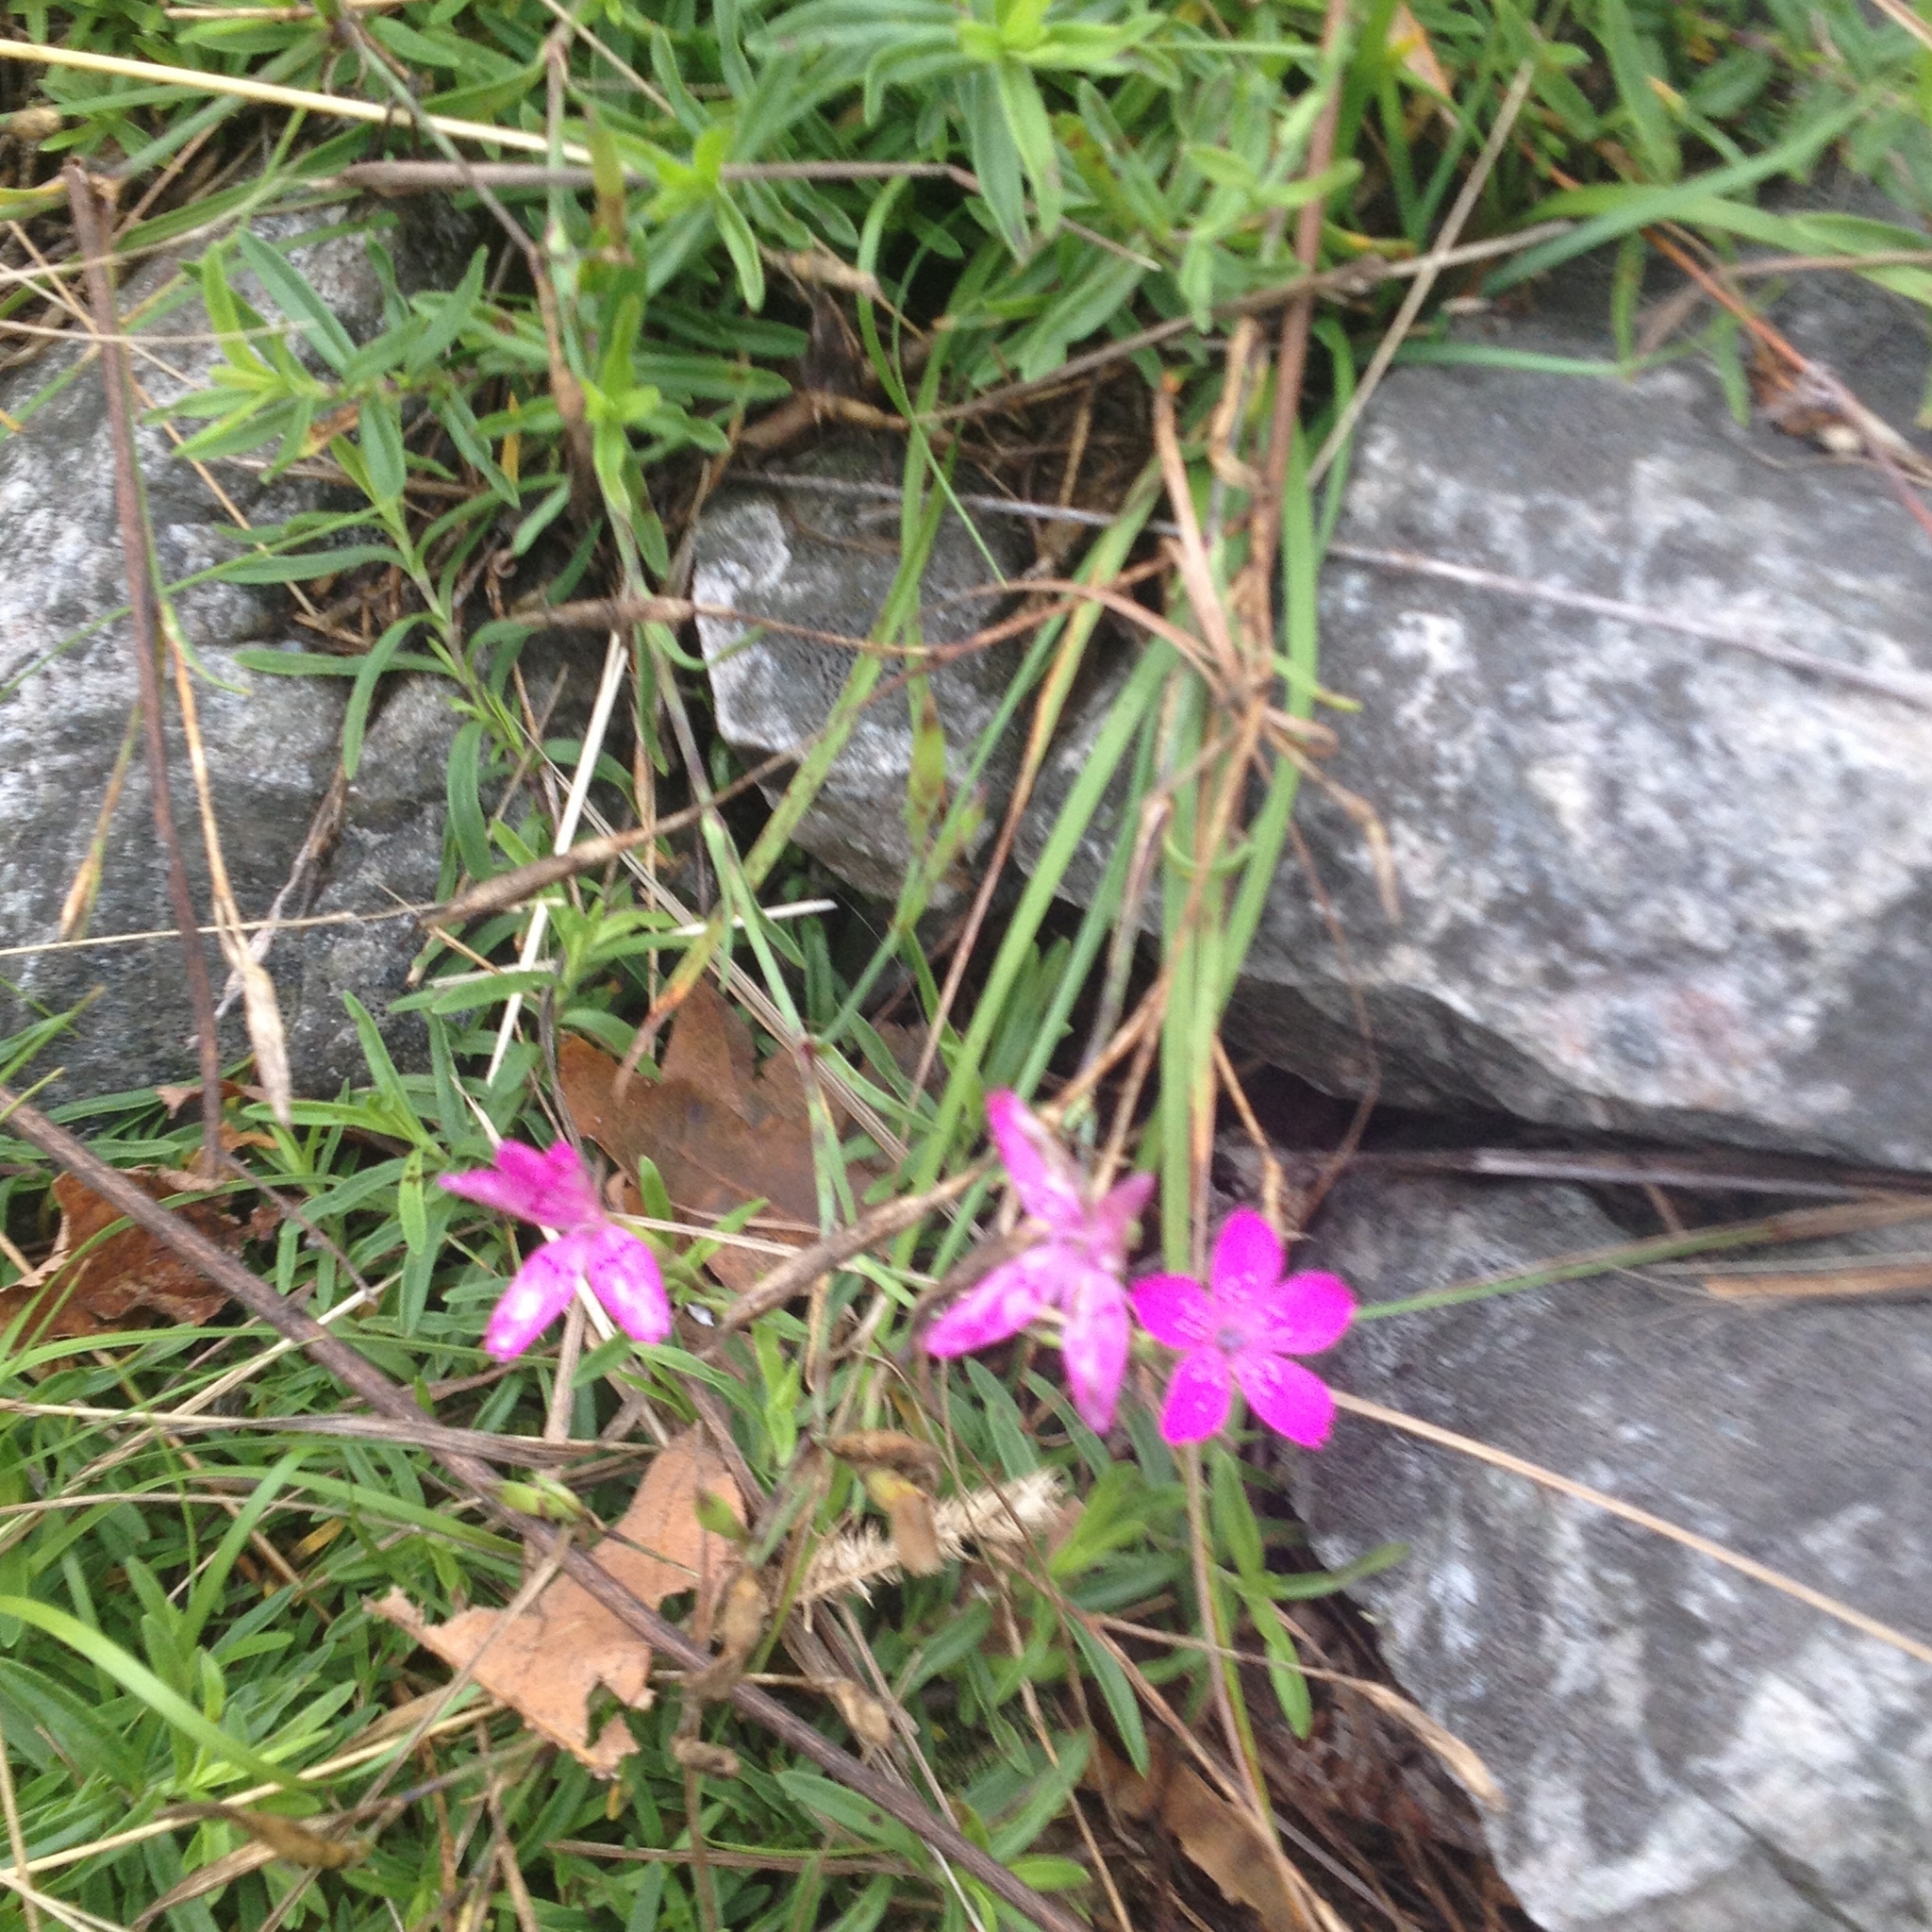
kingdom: Plantae
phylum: Tracheophyta
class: Magnoliopsida
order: Caryophyllales
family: Caryophyllaceae
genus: Dianthus
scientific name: Dianthus deltoides
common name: Maiden pink
